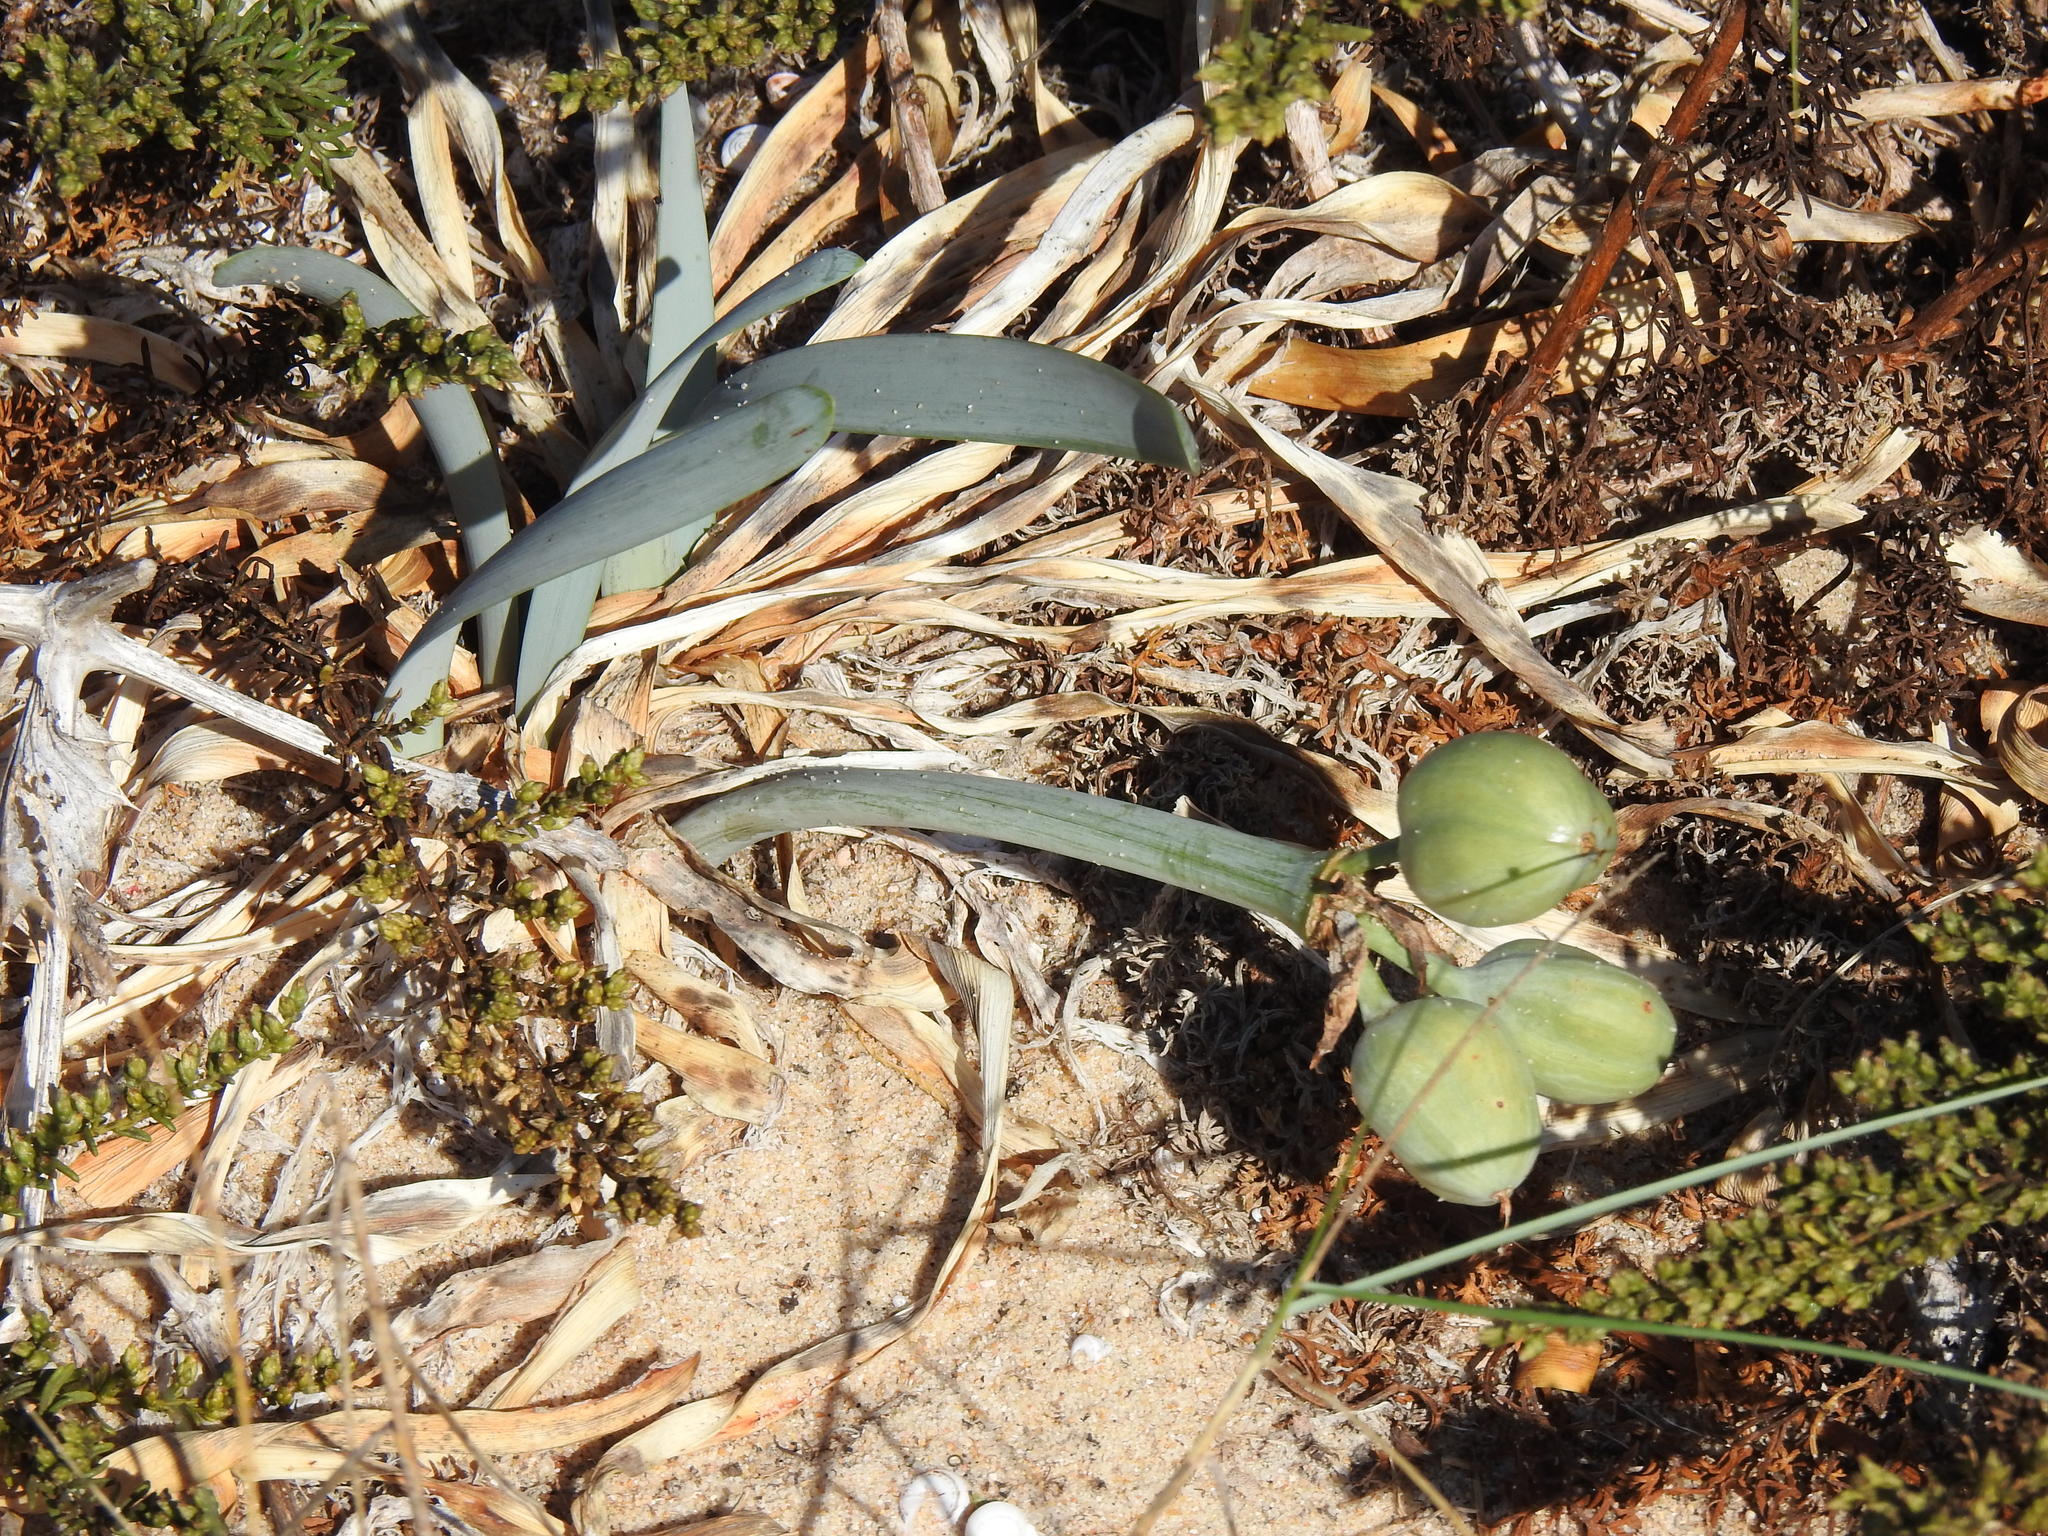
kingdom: Plantae
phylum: Tracheophyta
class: Liliopsida
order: Asparagales
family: Amaryllidaceae
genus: Pancratium
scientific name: Pancratium maritimum
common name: Sea-daffodil
